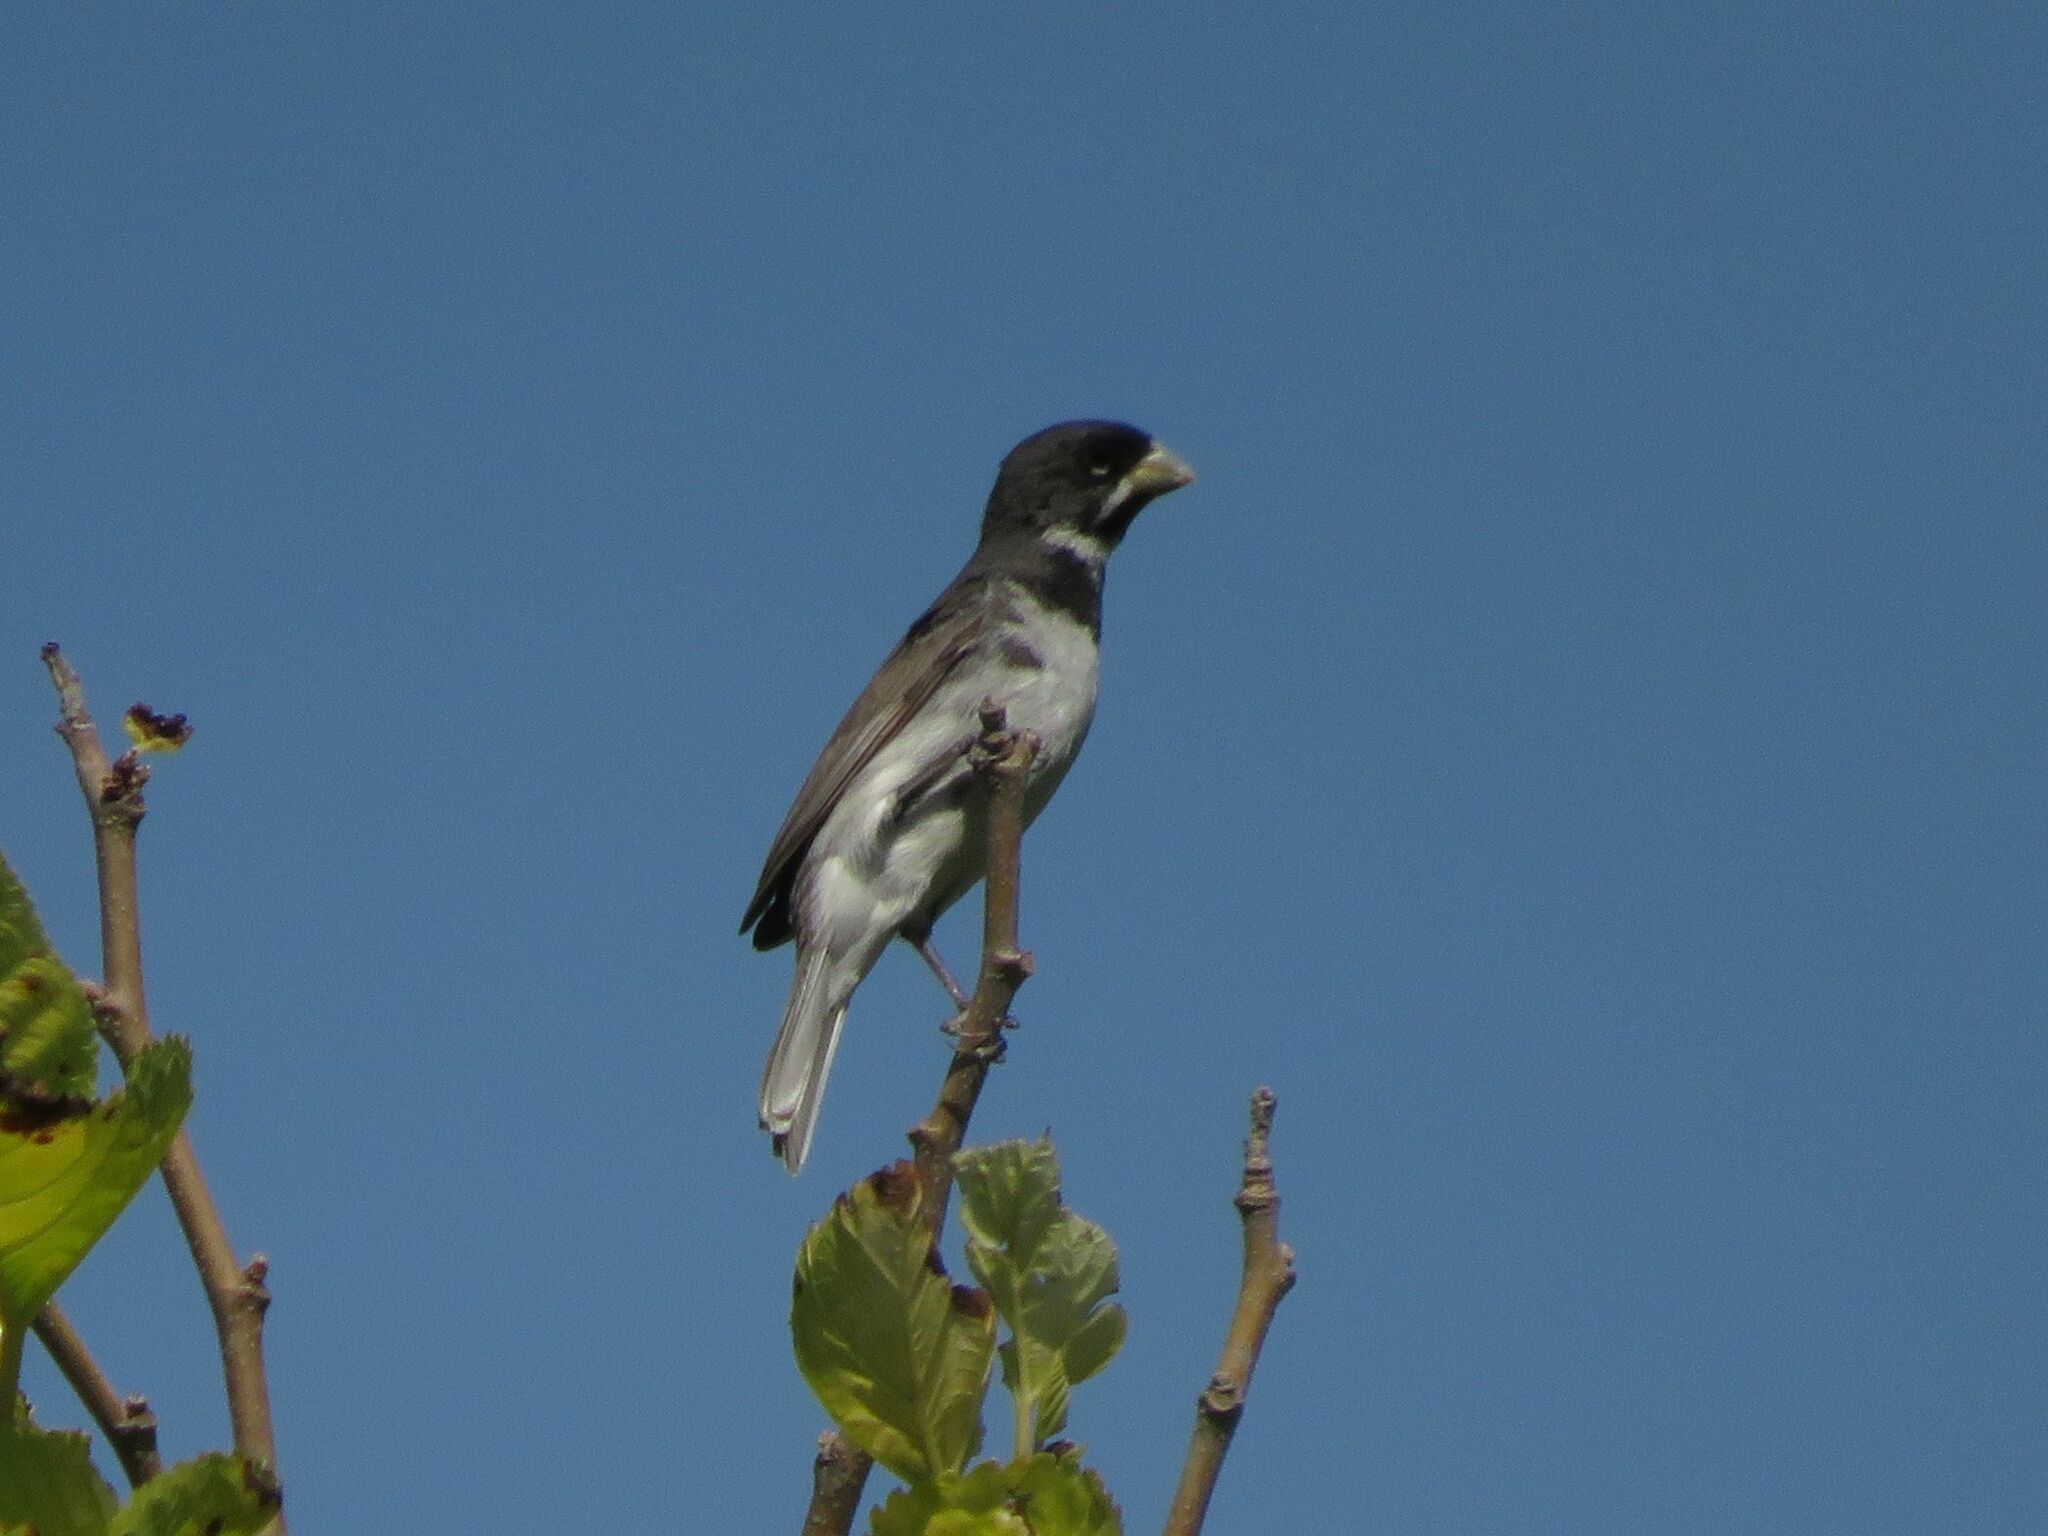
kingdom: Animalia
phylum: Chordata
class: Aves
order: Passeriformes
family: Thraupidae
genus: Sporophila
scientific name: Sporophila caerulescens
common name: Double-collared seedeater
